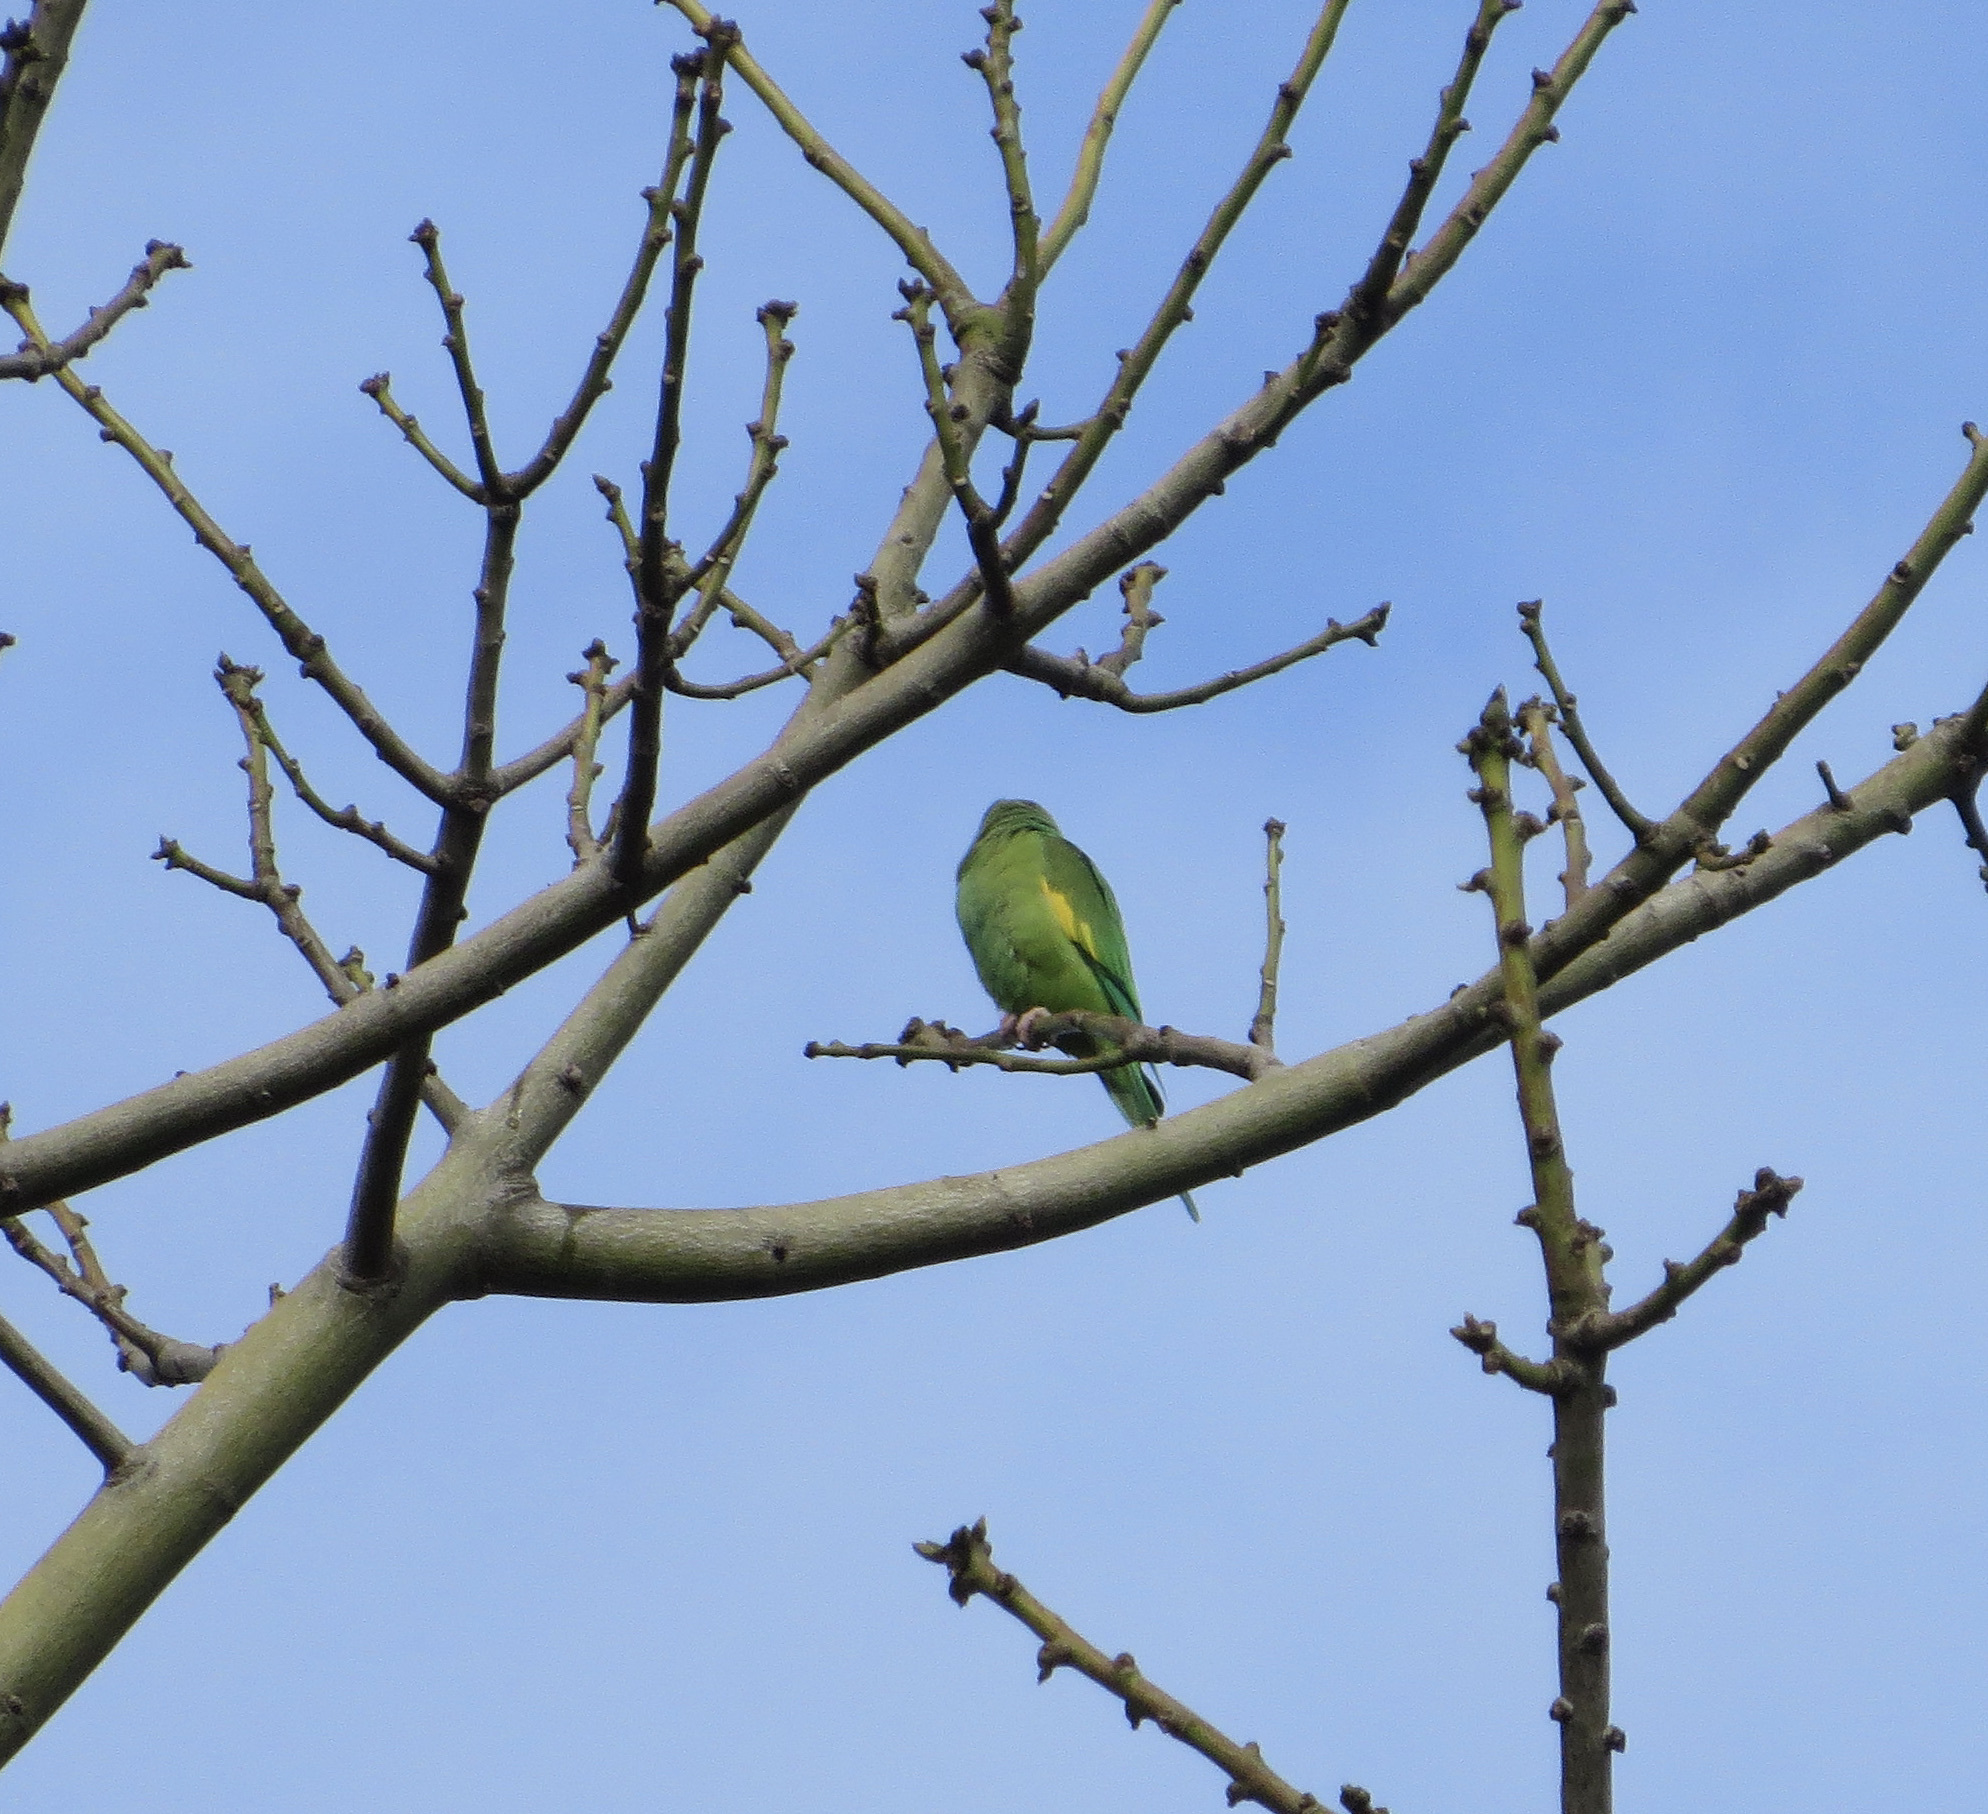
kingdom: Animalia
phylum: Chordata
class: Aves
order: Psittaciformes
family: Psittacidae
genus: Brotogeris
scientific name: Brotogeris chiriri
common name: Yellow-chevroned parakeet
